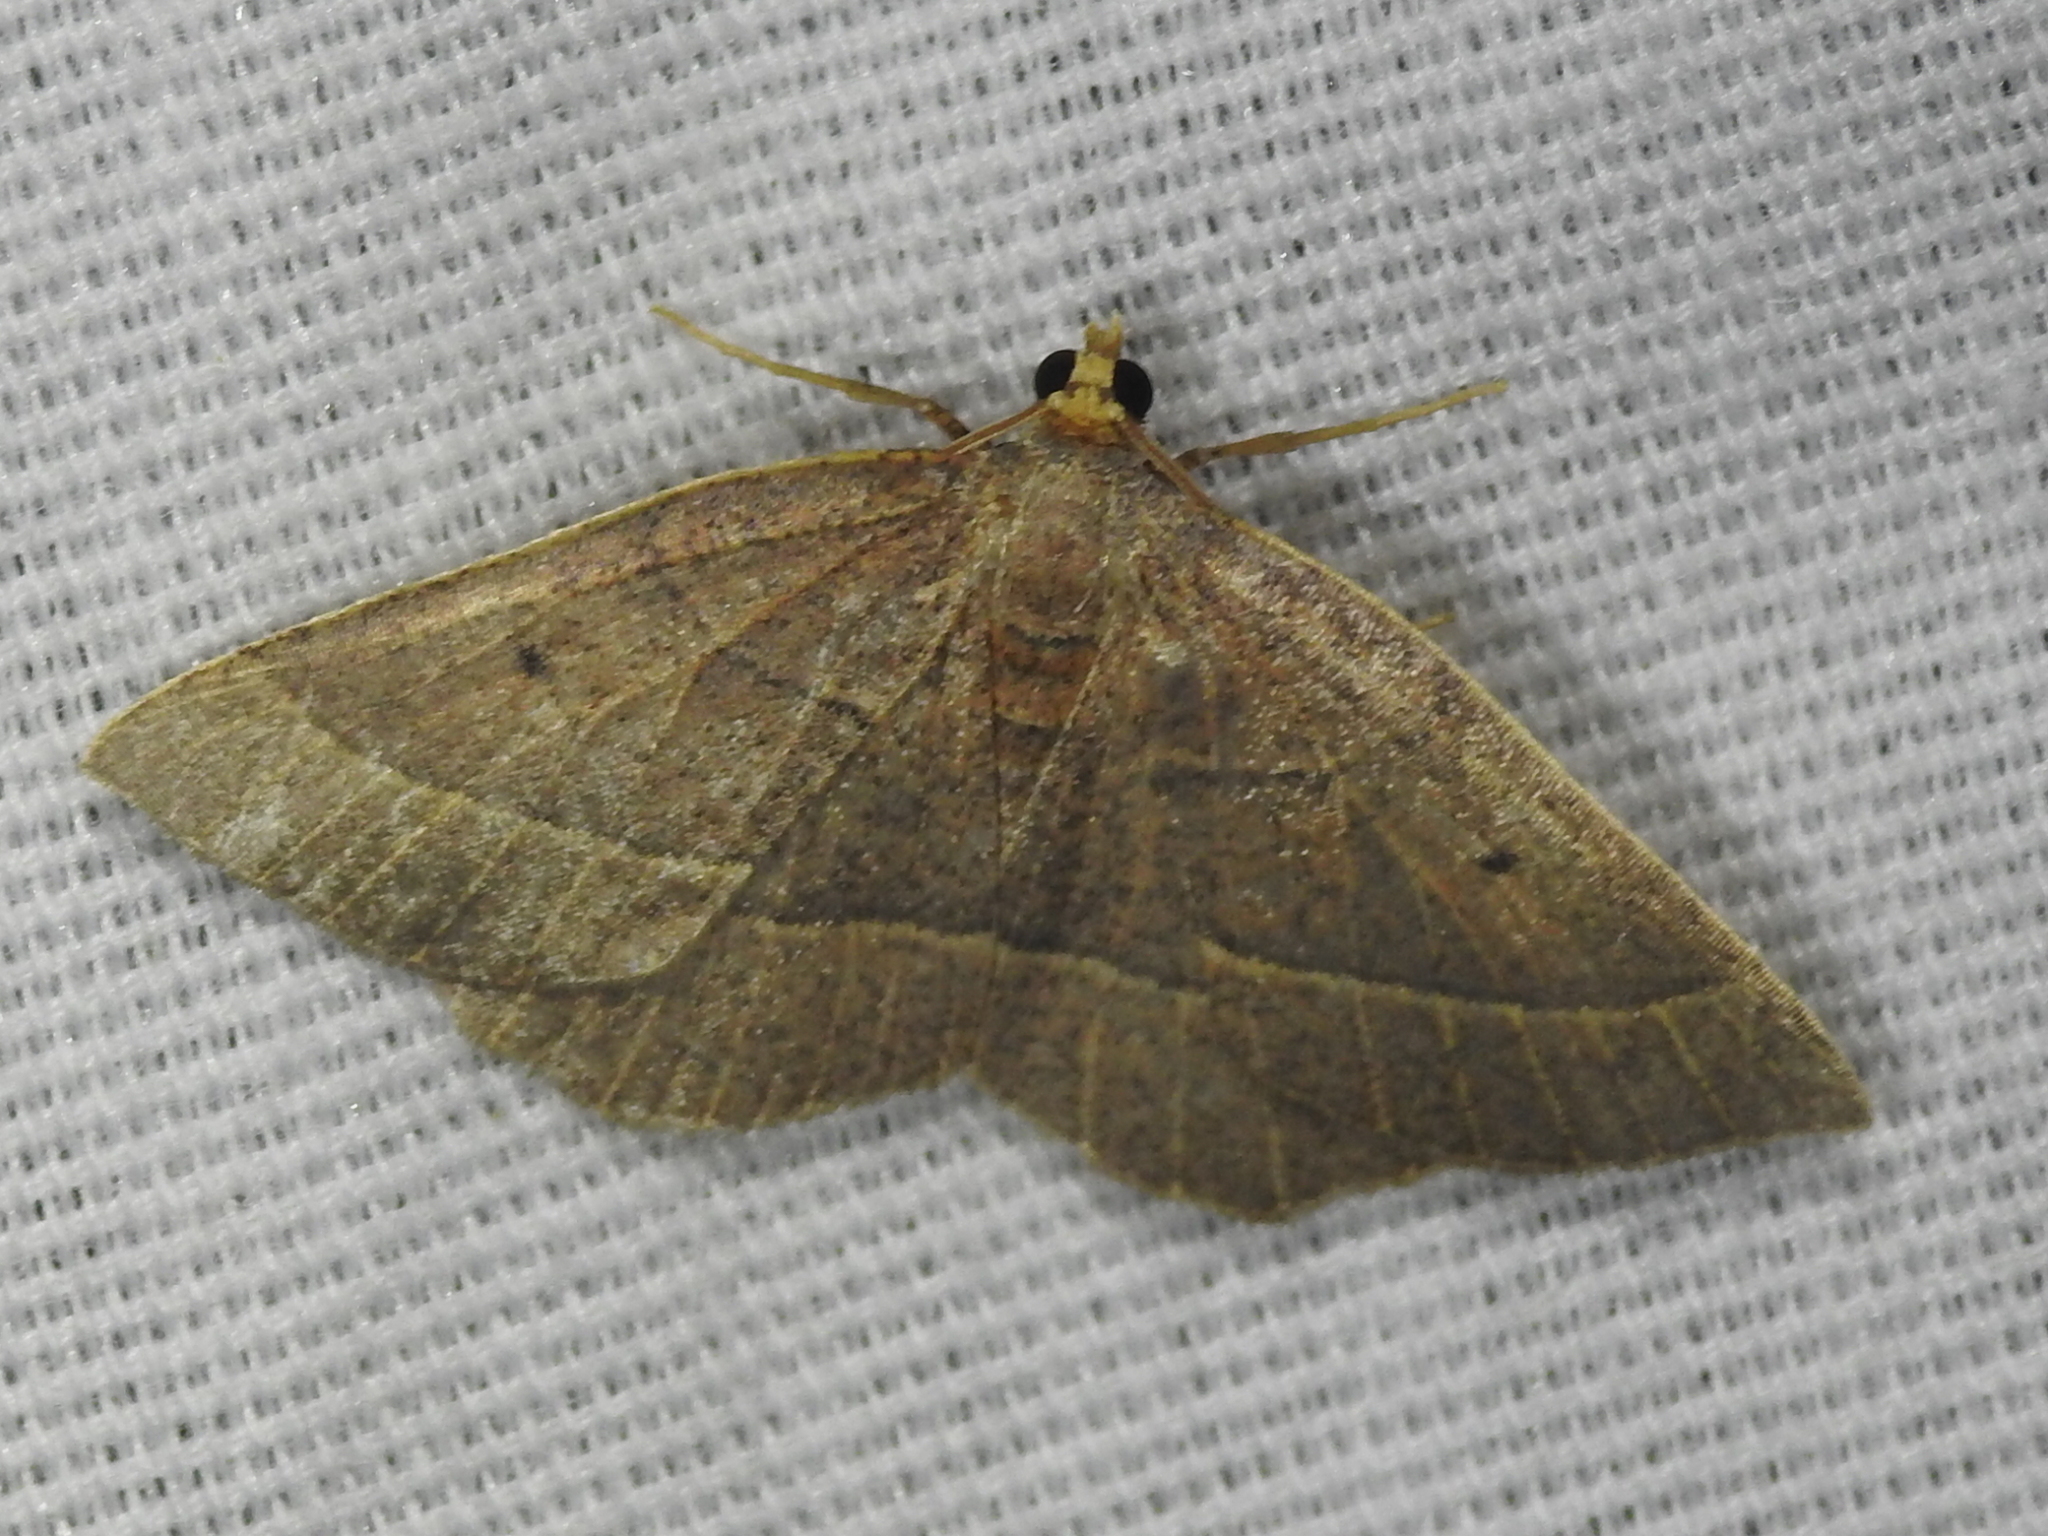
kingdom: Animalia
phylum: Arthropoda
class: Insecta
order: Lepidoptera
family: Geometridae
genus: Episemasia
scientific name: Episemasia cervinaria
